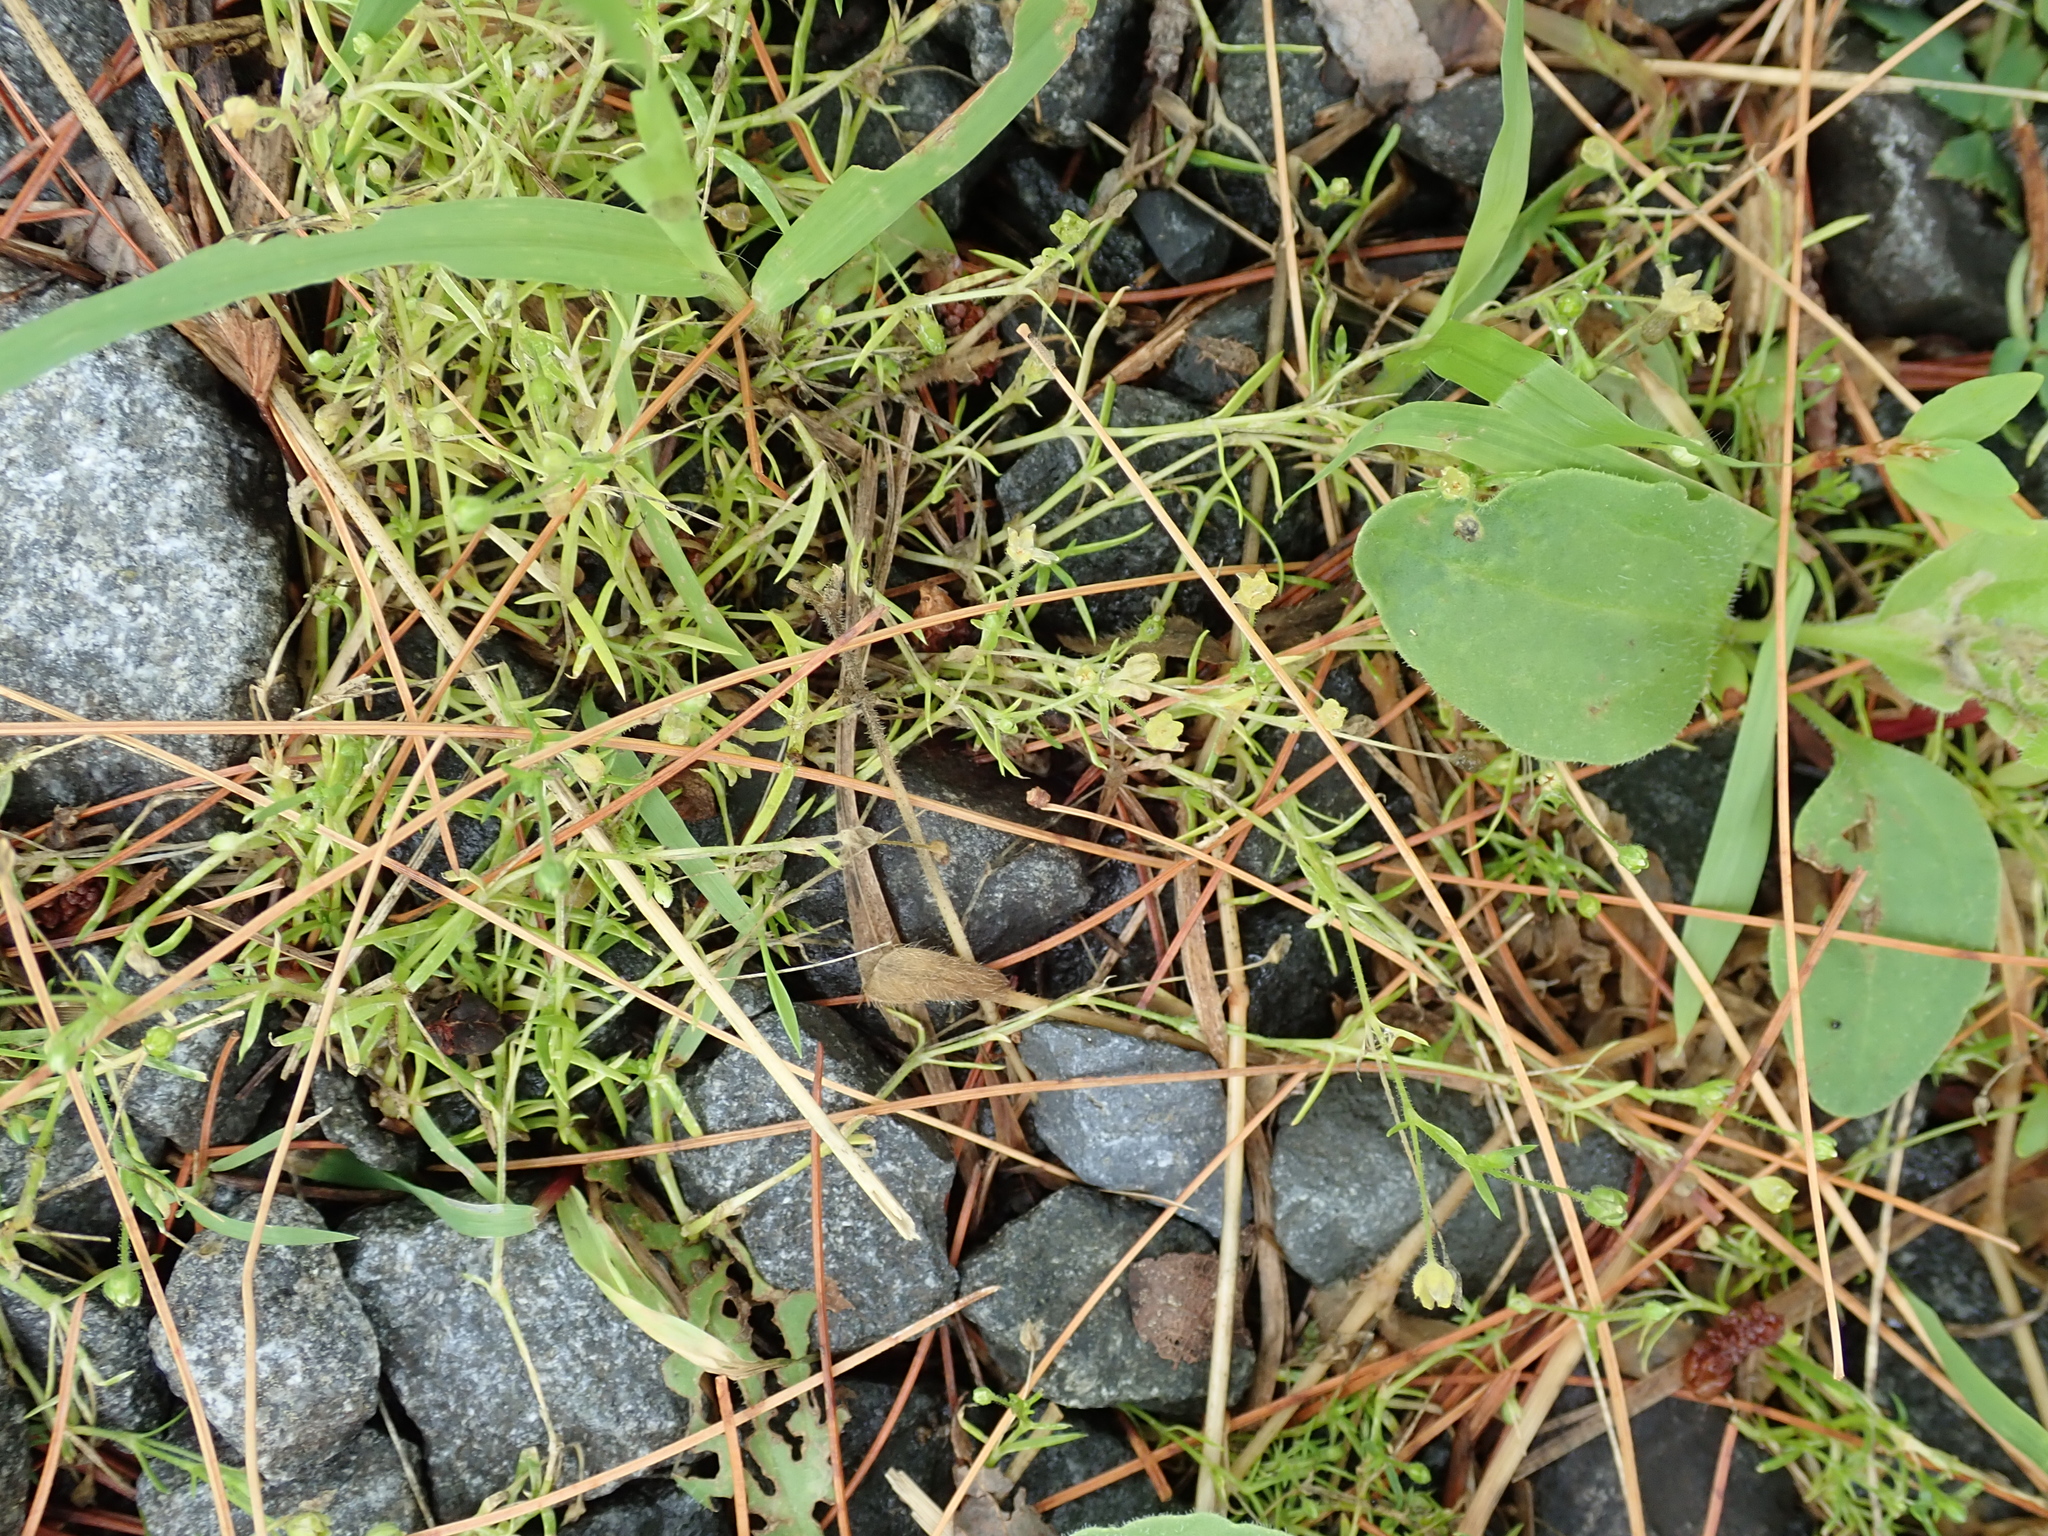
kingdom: Plantae
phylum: Tracheophyta
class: Magnoliopsida
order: Caryophyllales
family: Caryophyllaceae
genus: Sagina
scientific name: Sagina decumbens
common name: Decumbent pearlwort
